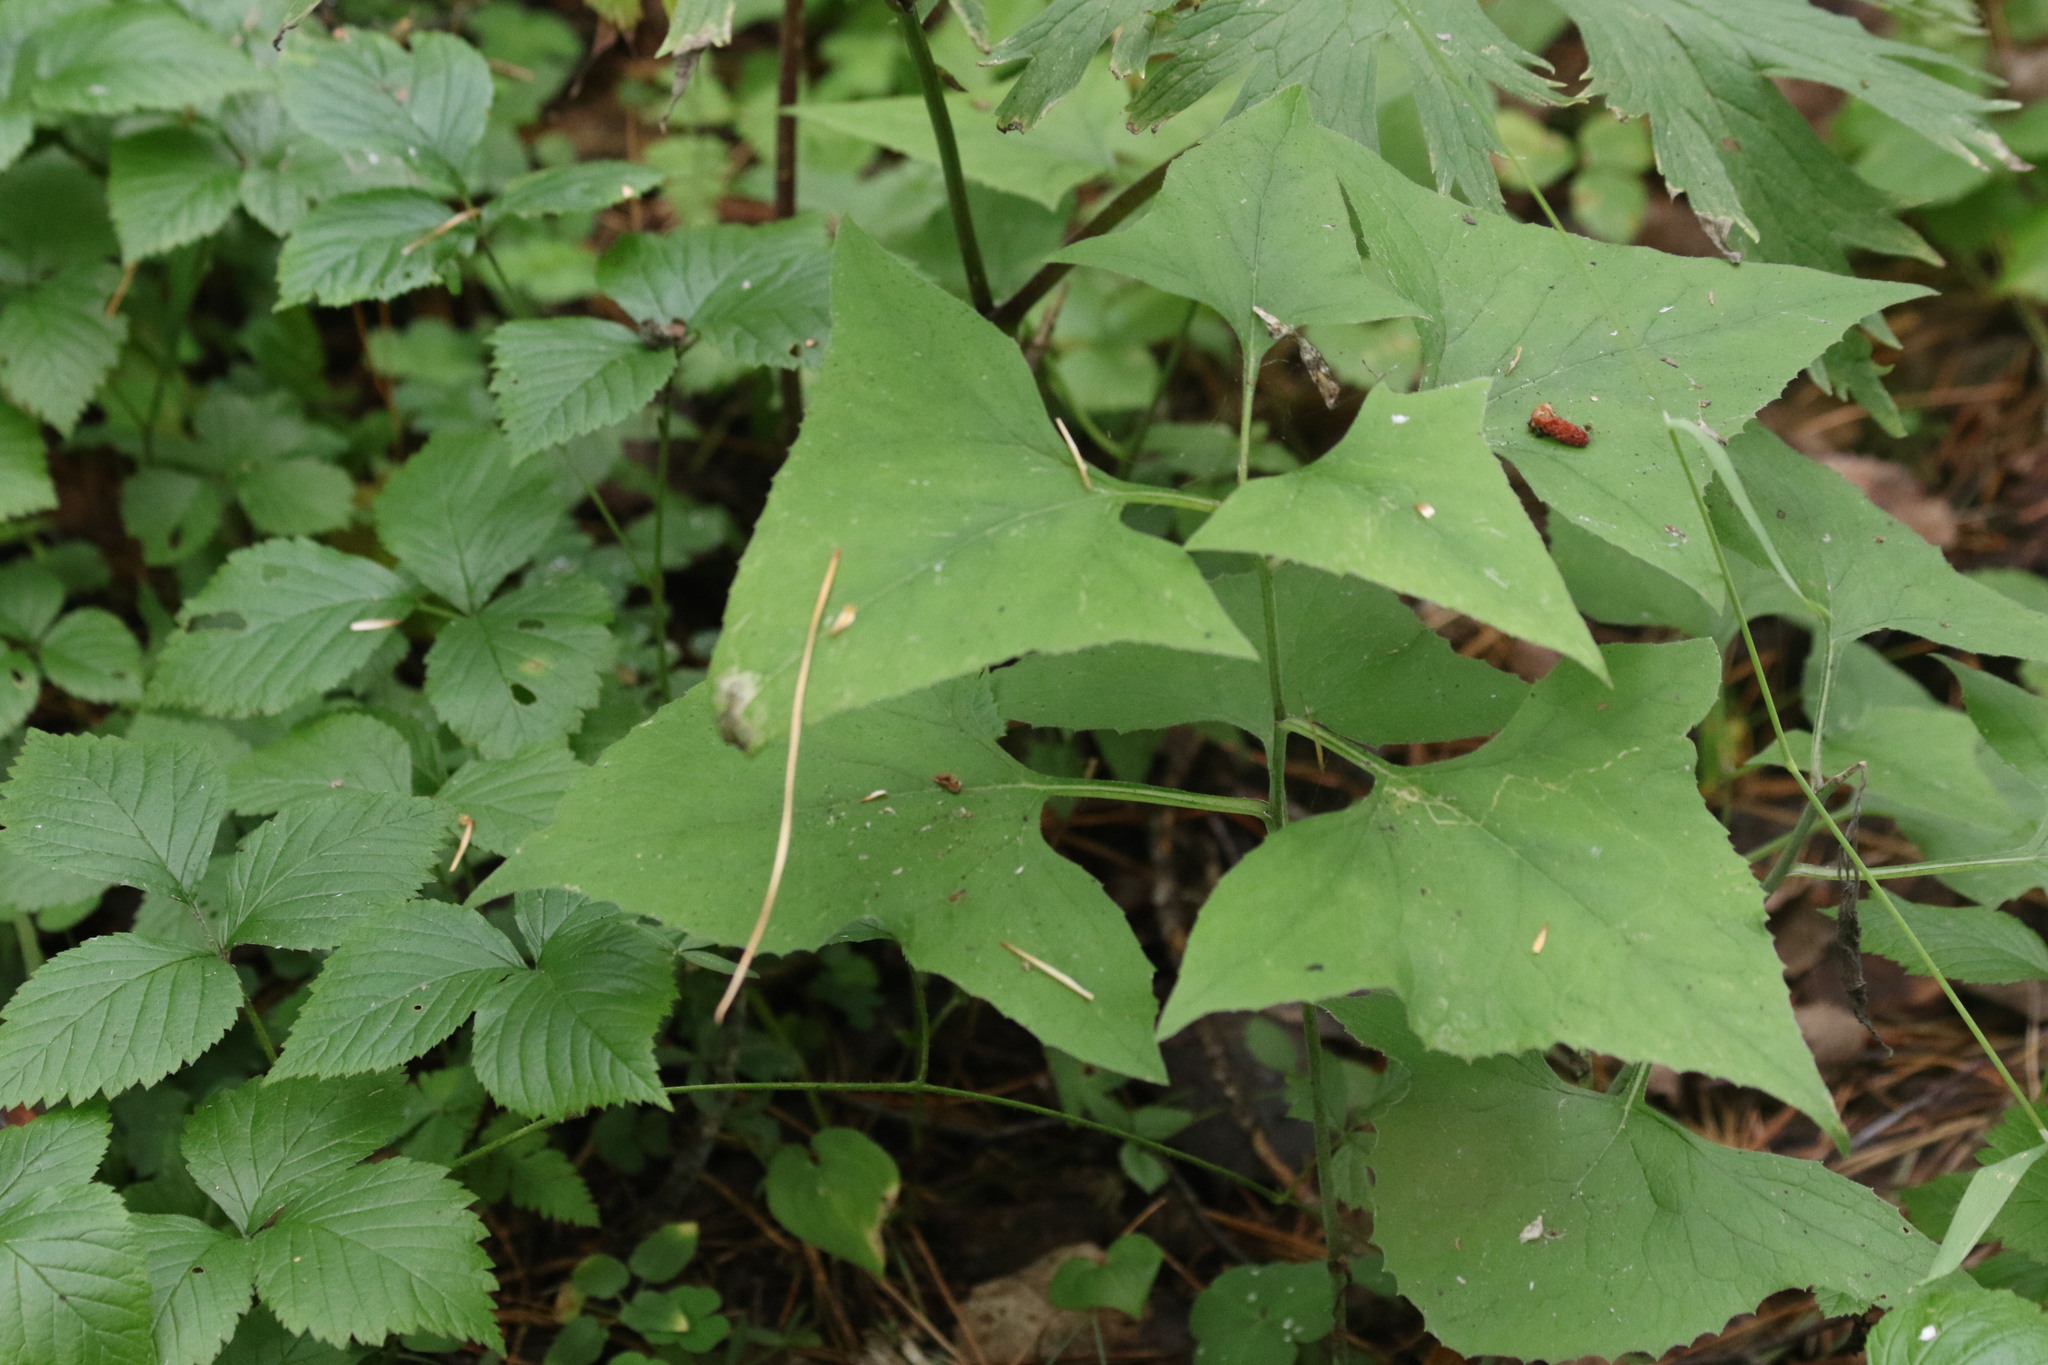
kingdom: Plantae
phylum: Tracheophyta
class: Magnoliopsida
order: Asterales
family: Asteraceae
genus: Parasenecio
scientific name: Parasenecio hastatus
